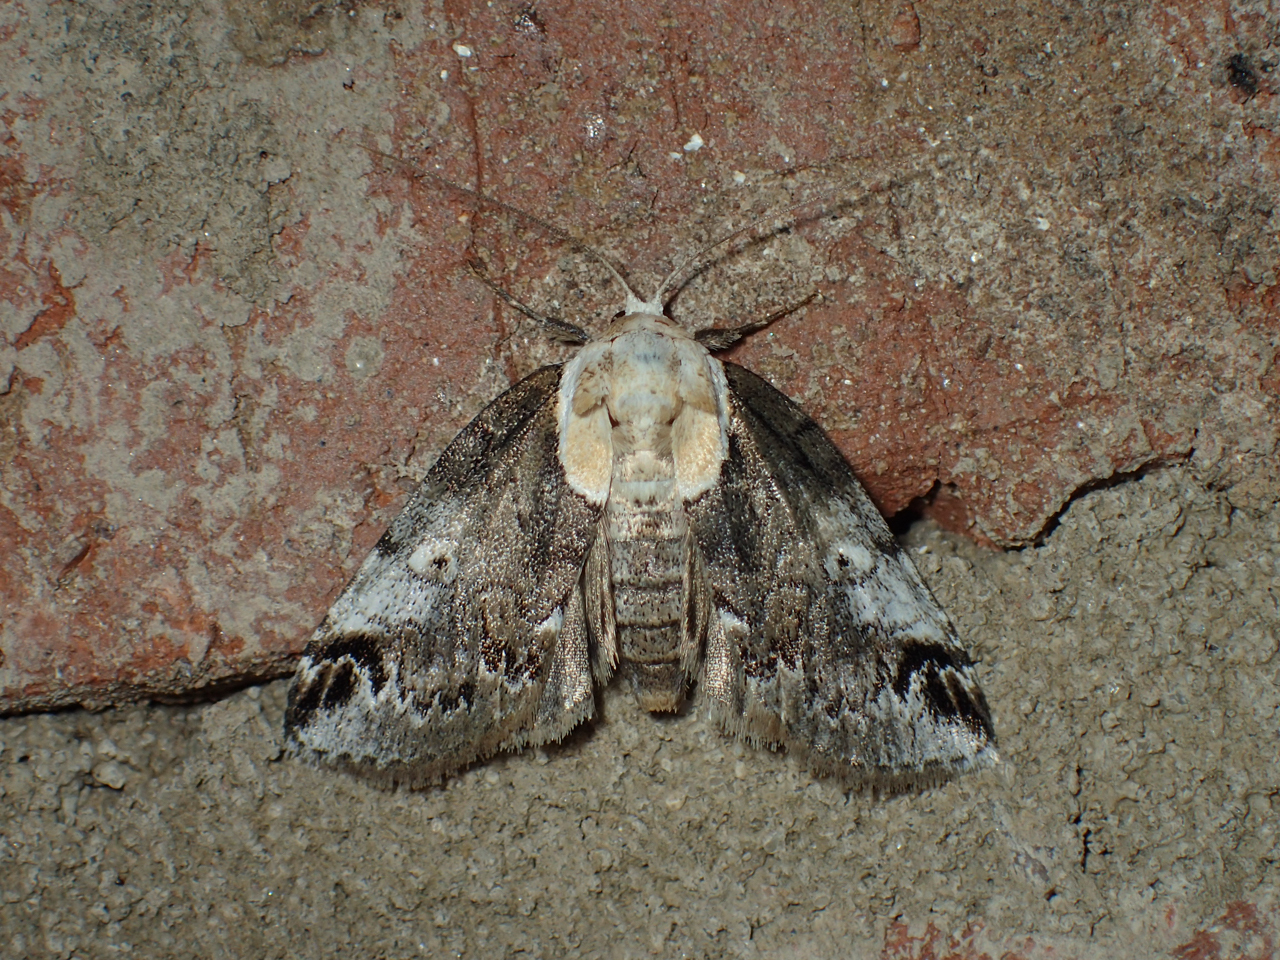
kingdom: Animalia
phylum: Arthropoda
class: Insecta
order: Lepidoptera
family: Nolidae
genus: Baileya
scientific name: Baileya ophthalmica
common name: Eyed baileya moth
